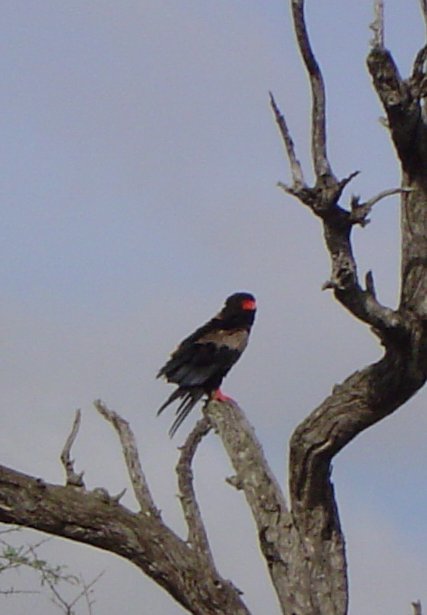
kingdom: Animalia
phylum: Chordata
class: Aves
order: Accipitriformes
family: Accipitridae
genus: Terathopius
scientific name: Terathopius ecaudatus
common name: Bateleur
